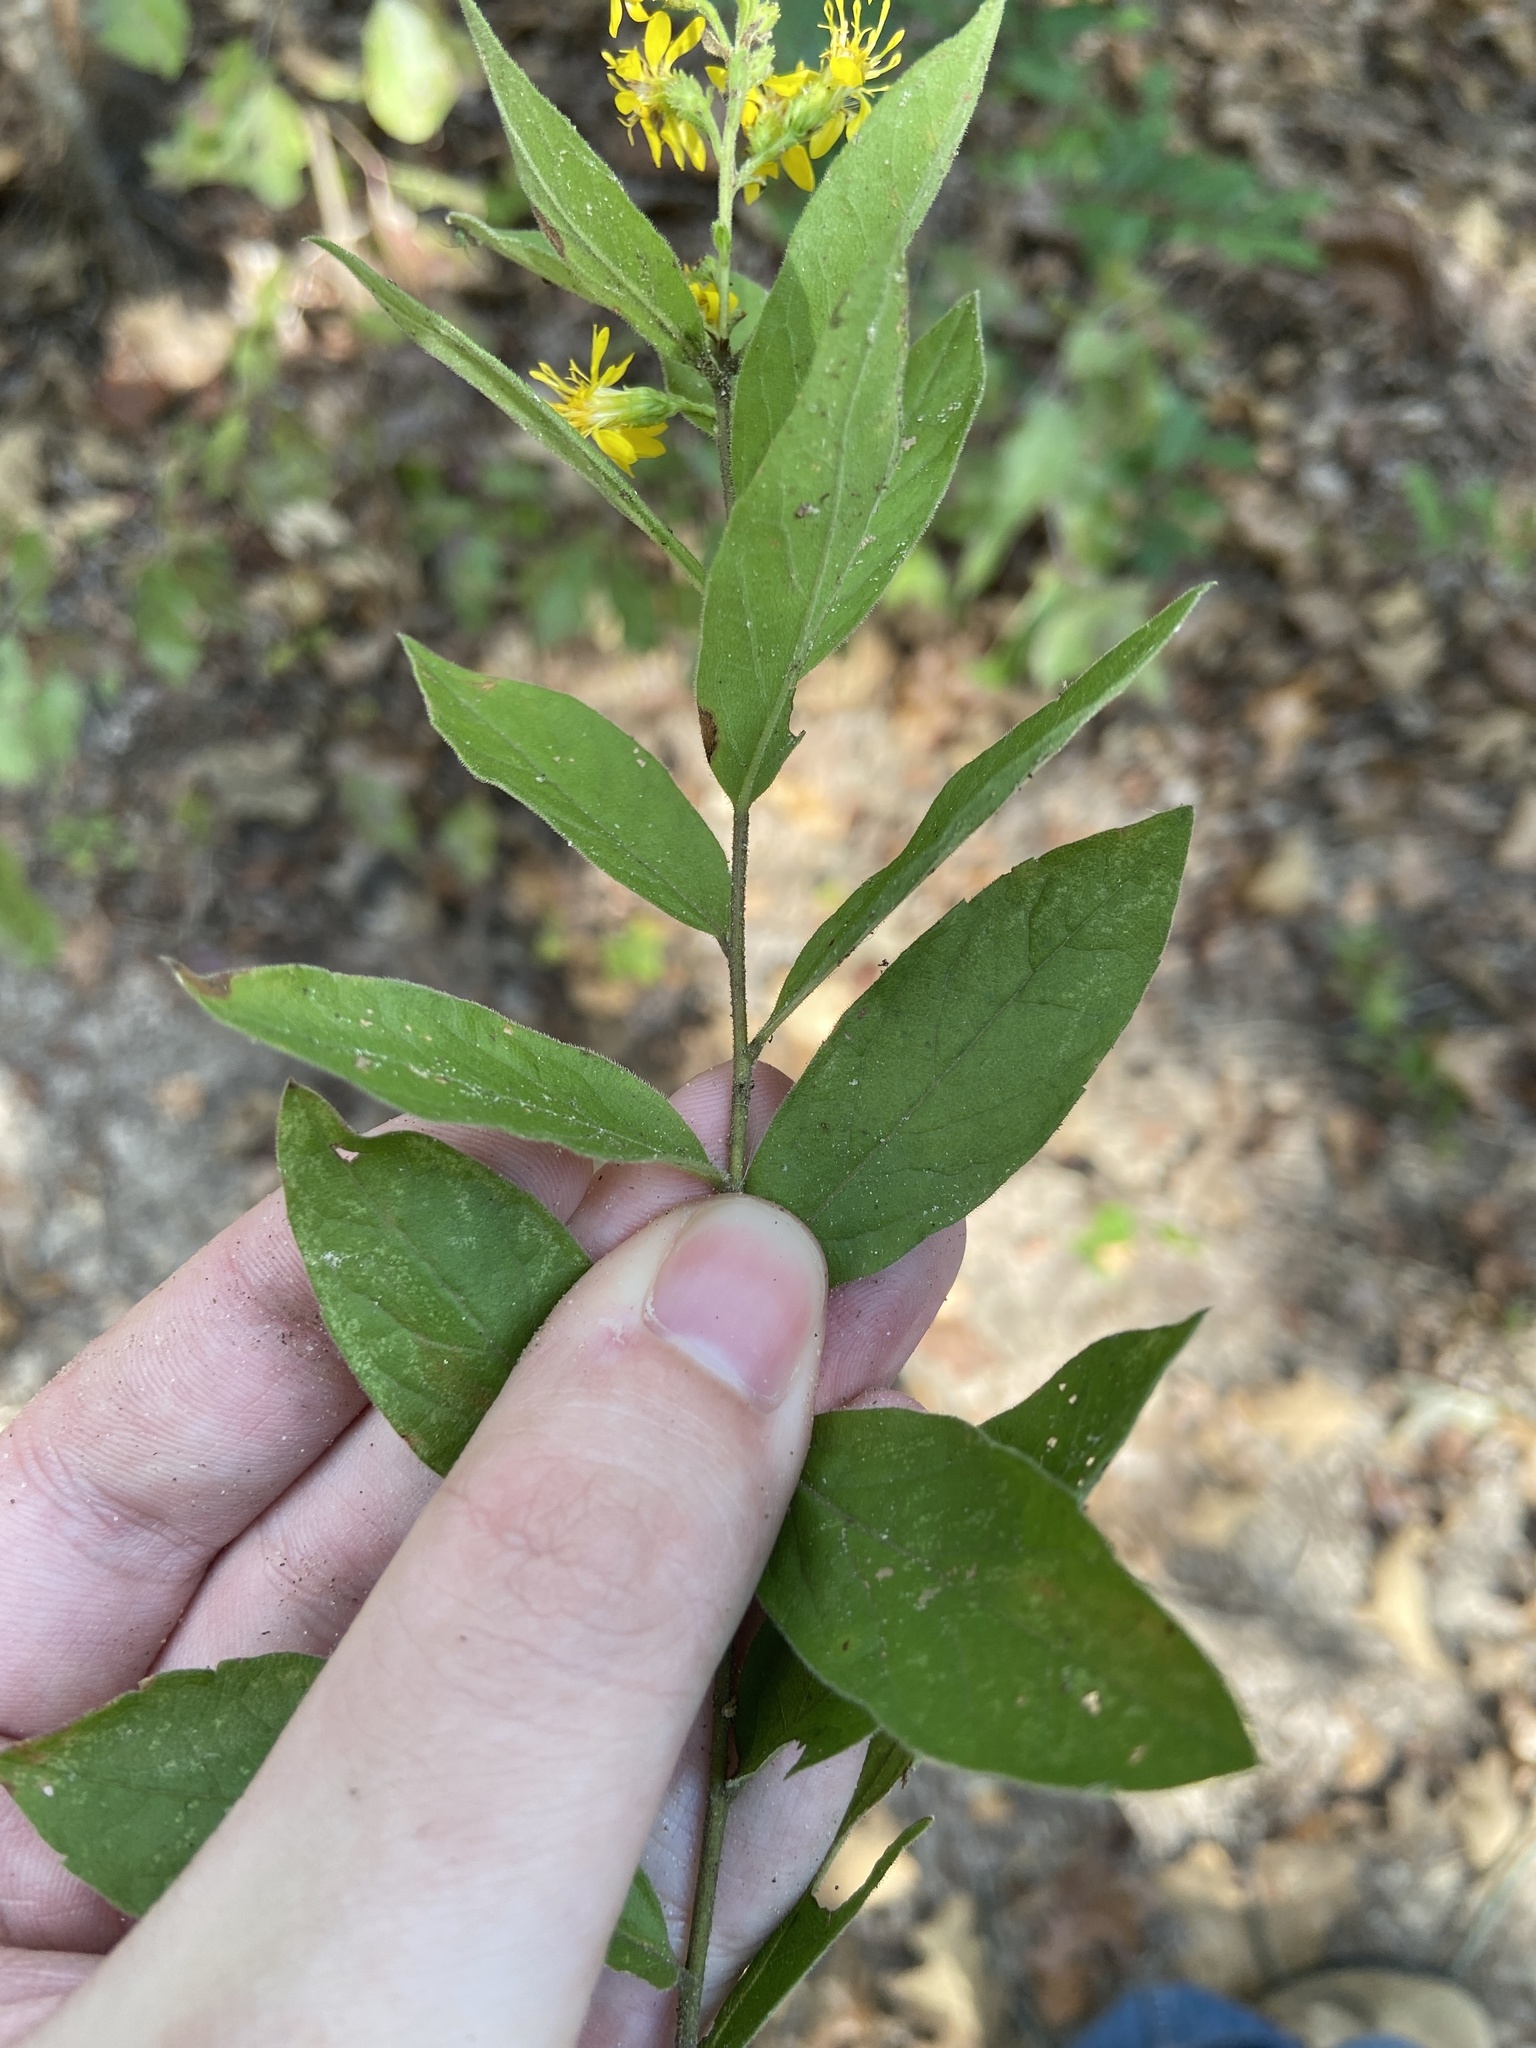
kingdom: Plantae
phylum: Tracheophyta
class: Magnoliopsida
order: Asterales
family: Asteraceae
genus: Solidago
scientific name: Solidago petiolaris
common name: Downy ragged goldenrod
